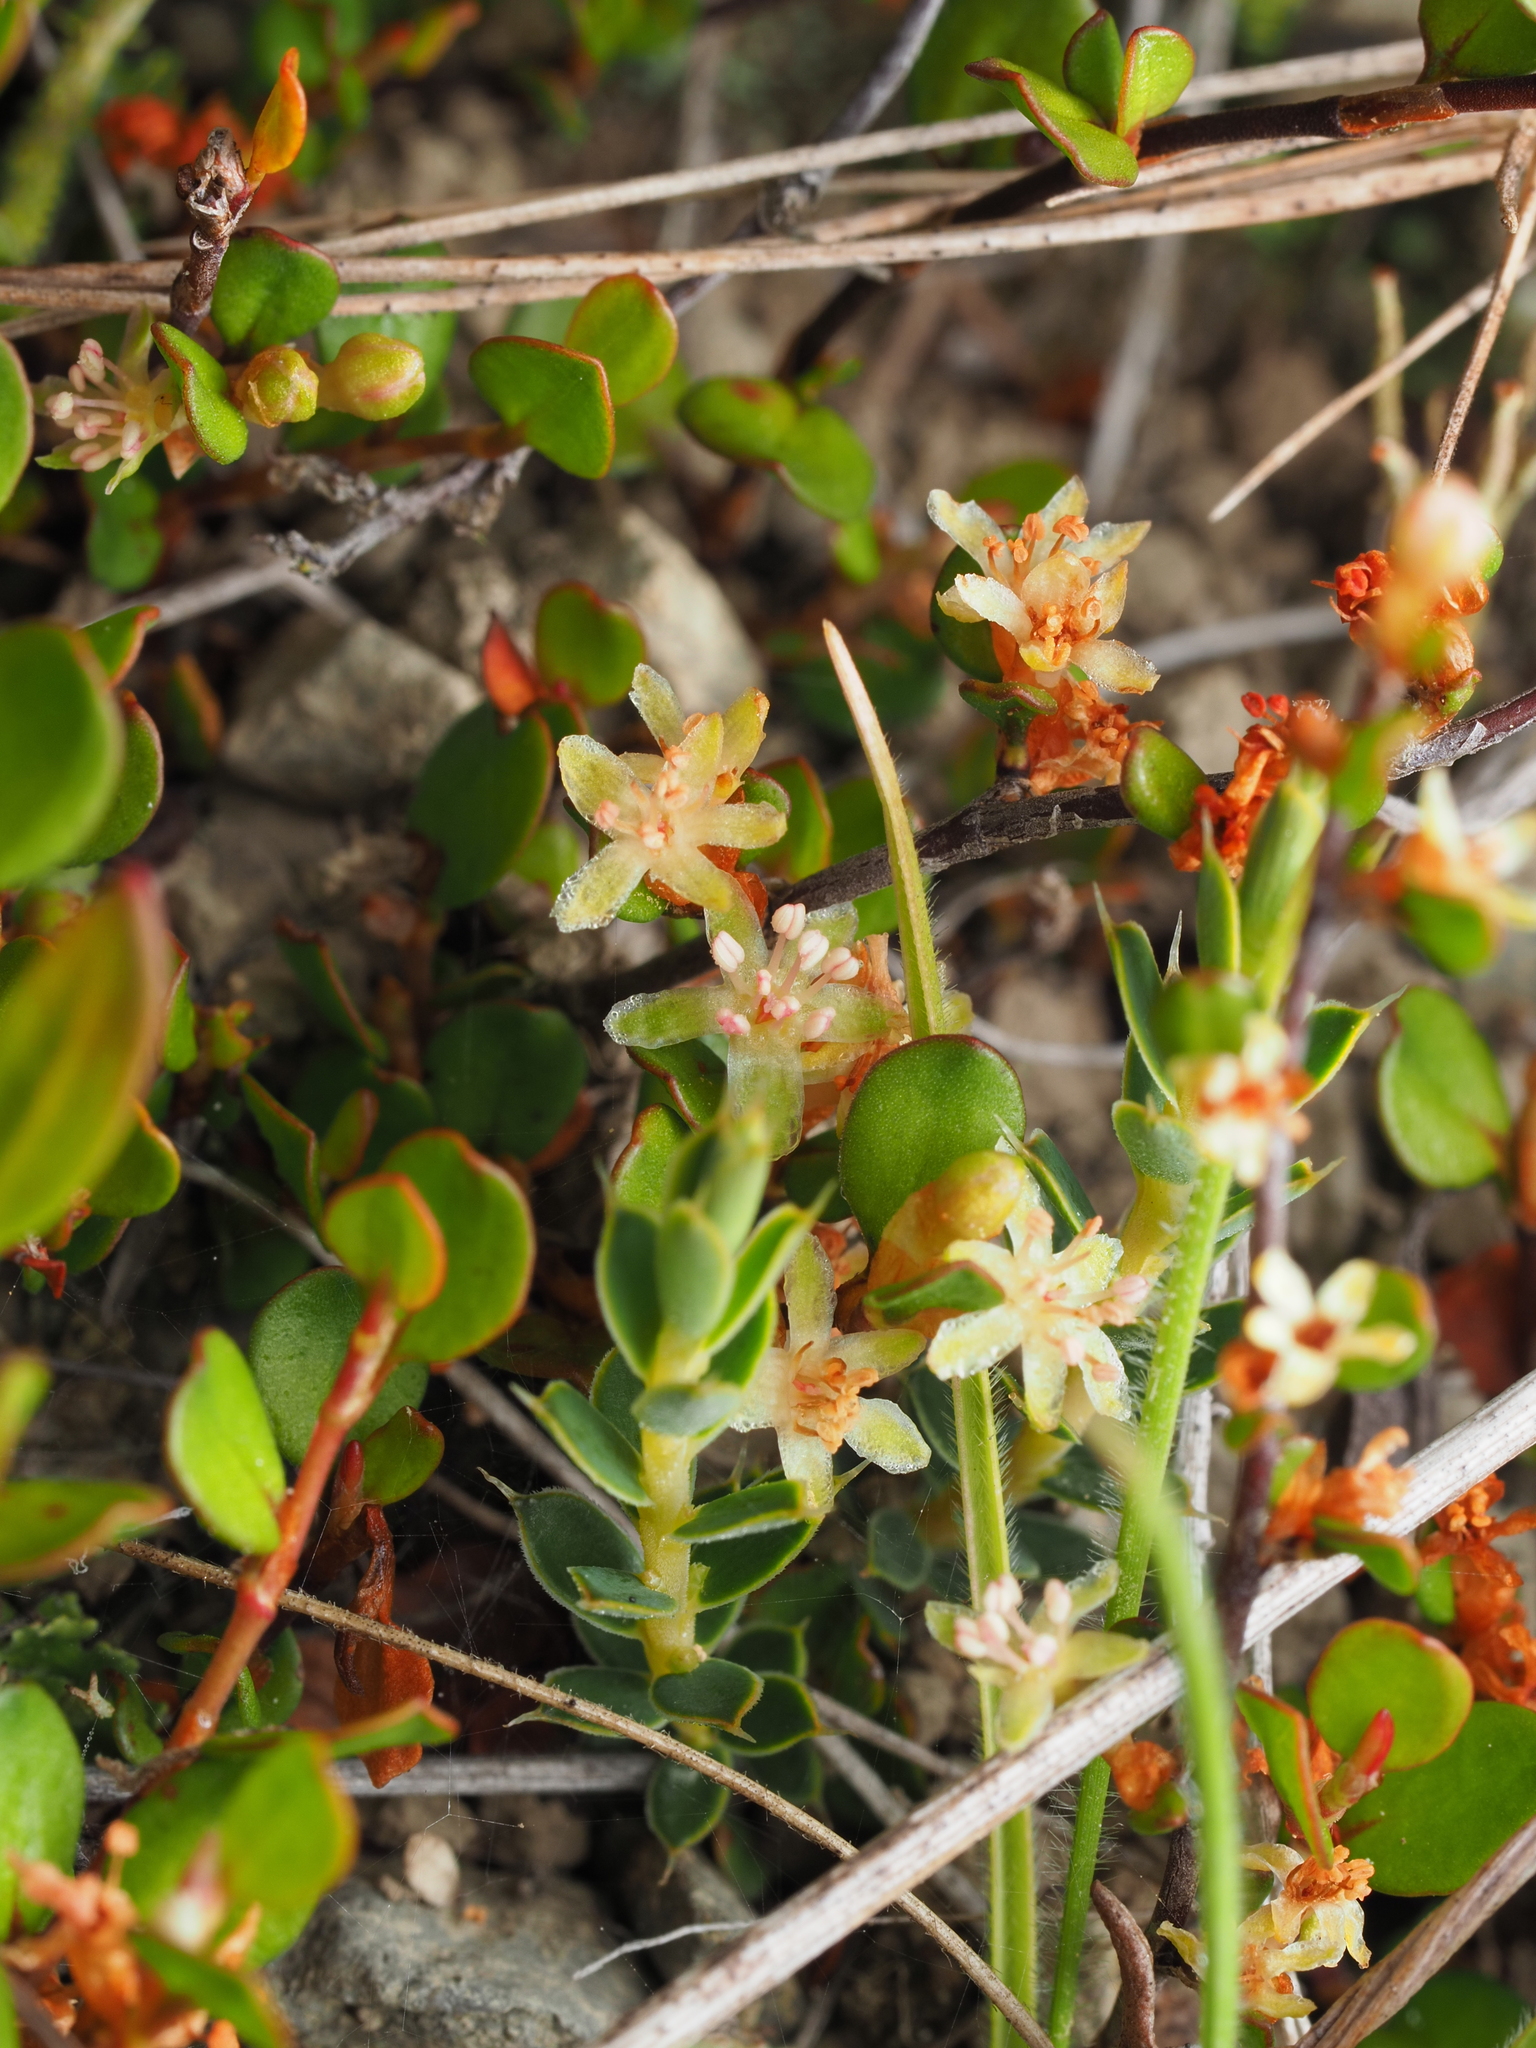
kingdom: Plantae
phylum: Tracheophyta
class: Magnoliopsida
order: Caryophyllales
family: Polygonaceae
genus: Muehlenbeckia
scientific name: Muehlenbeckia axillaris
